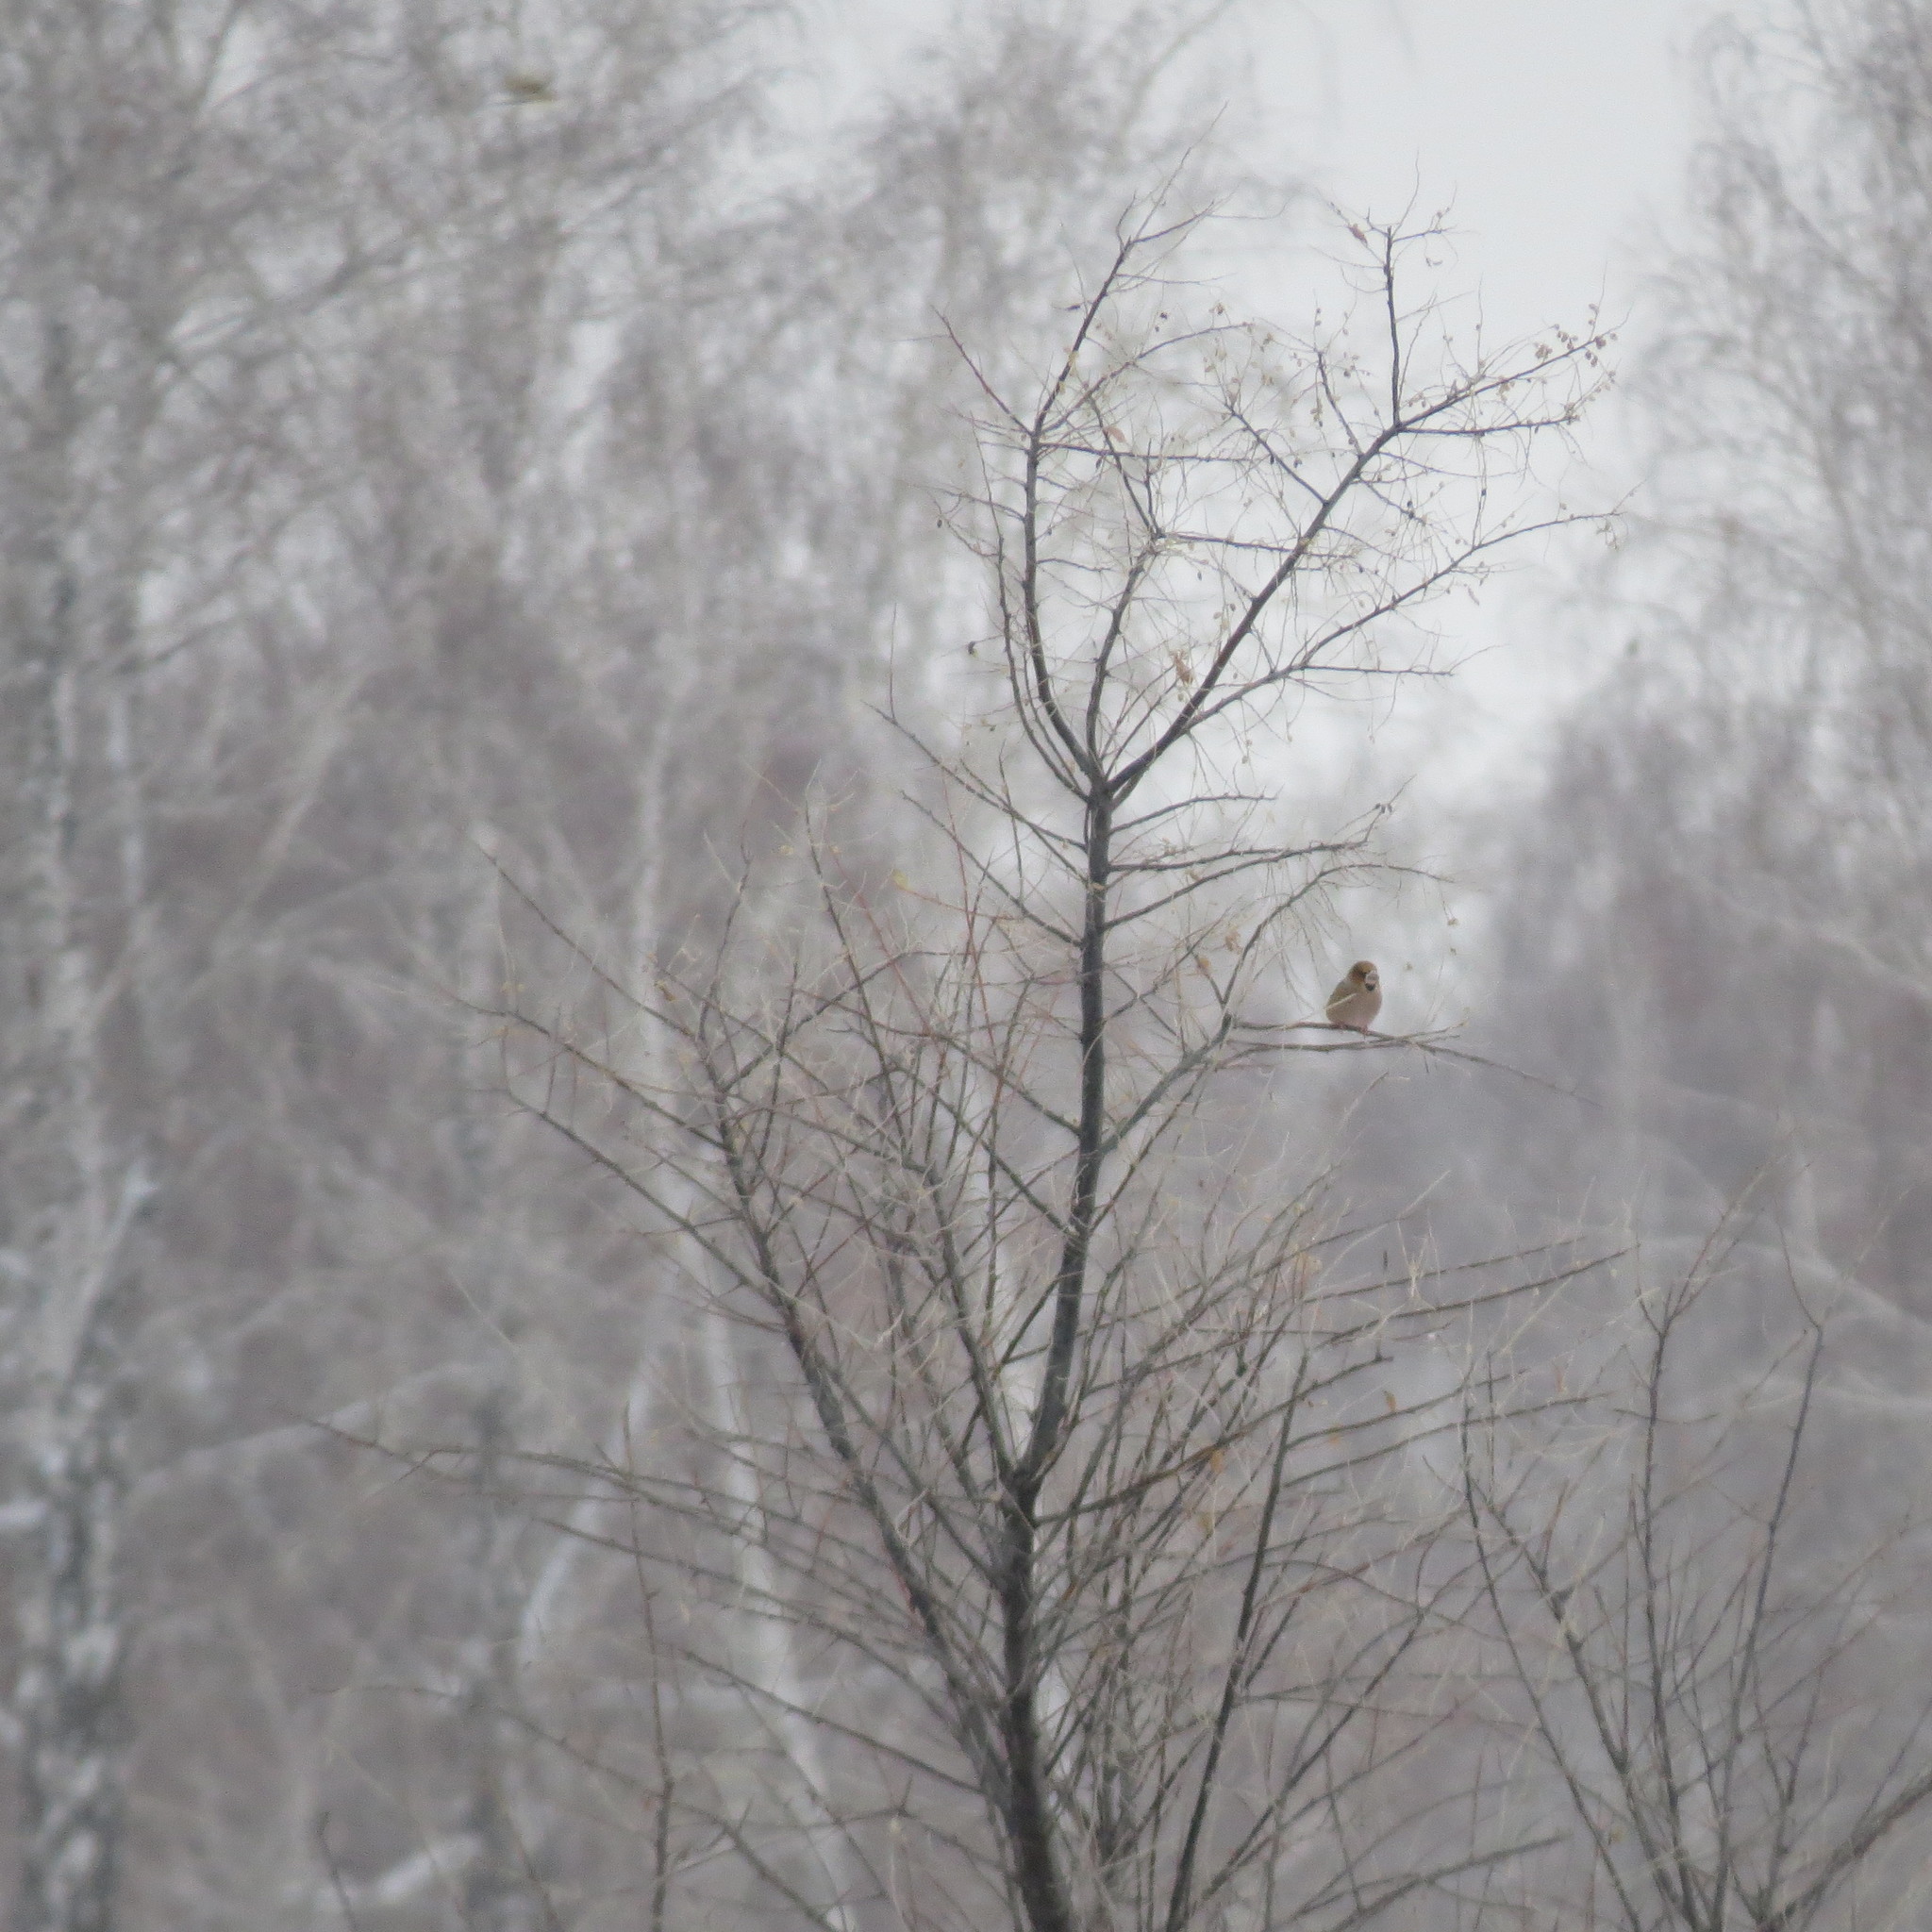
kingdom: Animalia
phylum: Chordata
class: Aves
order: Passeriformes
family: Fringillidae
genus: Coccothraustes
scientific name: Coccothraustes coccothraustes
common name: Hawfinch
